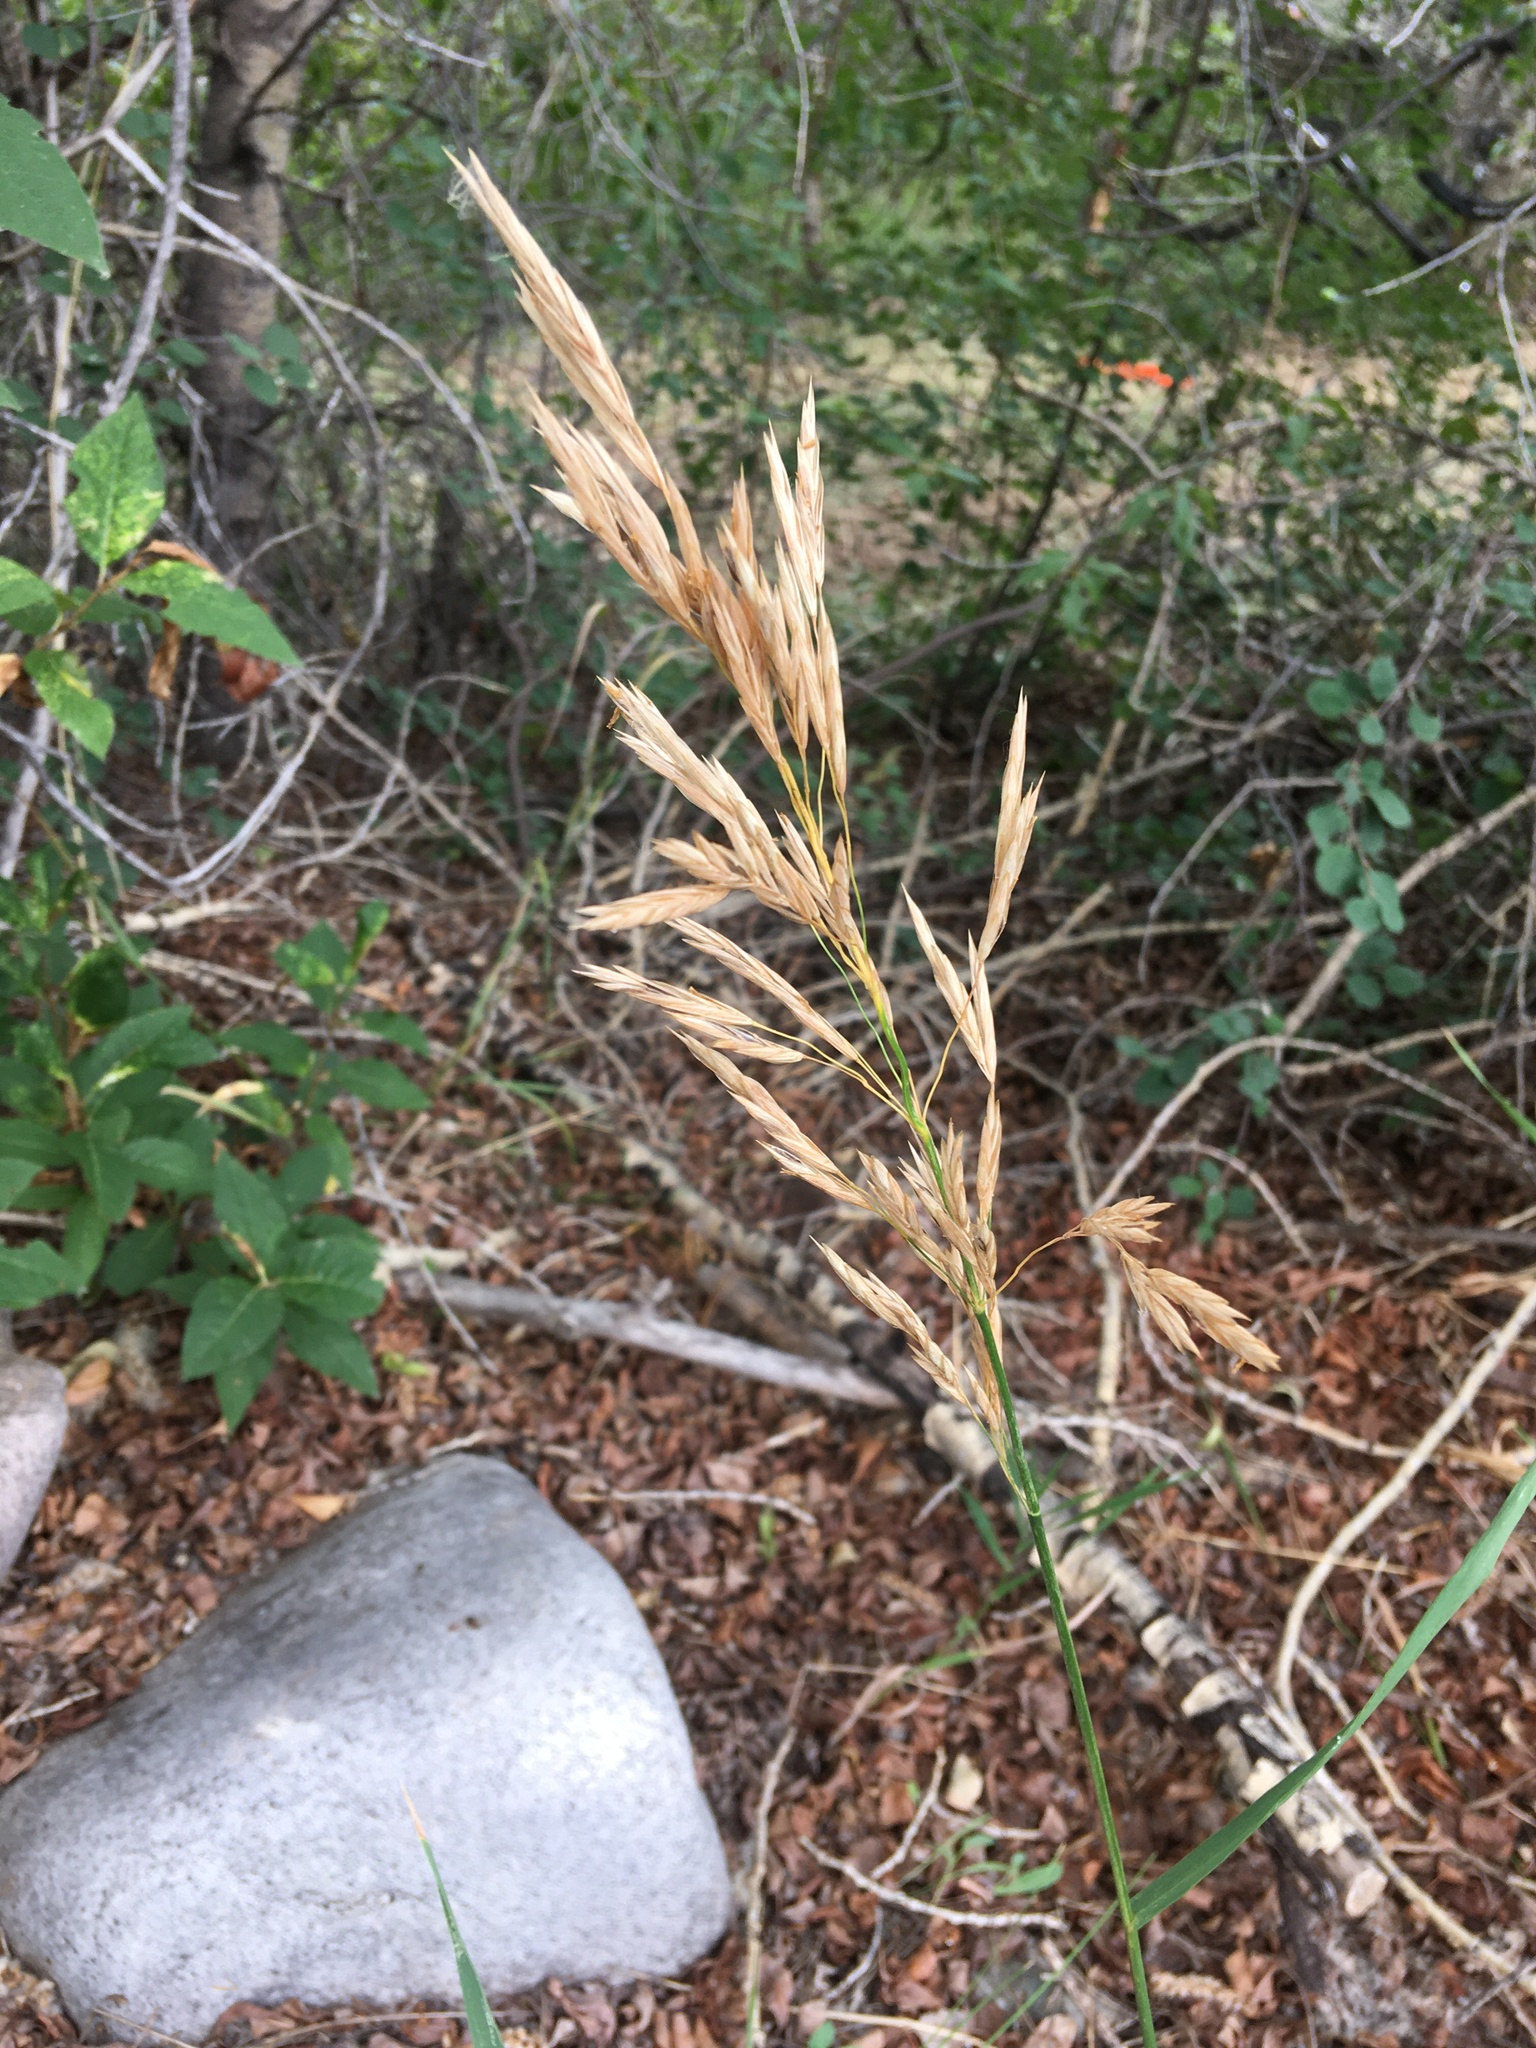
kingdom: Plantae
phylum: Tracheophyta
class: Liliopsida
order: Poales
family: Poaceae
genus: Bromus
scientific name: Bromus inermis
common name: Smooth brome
